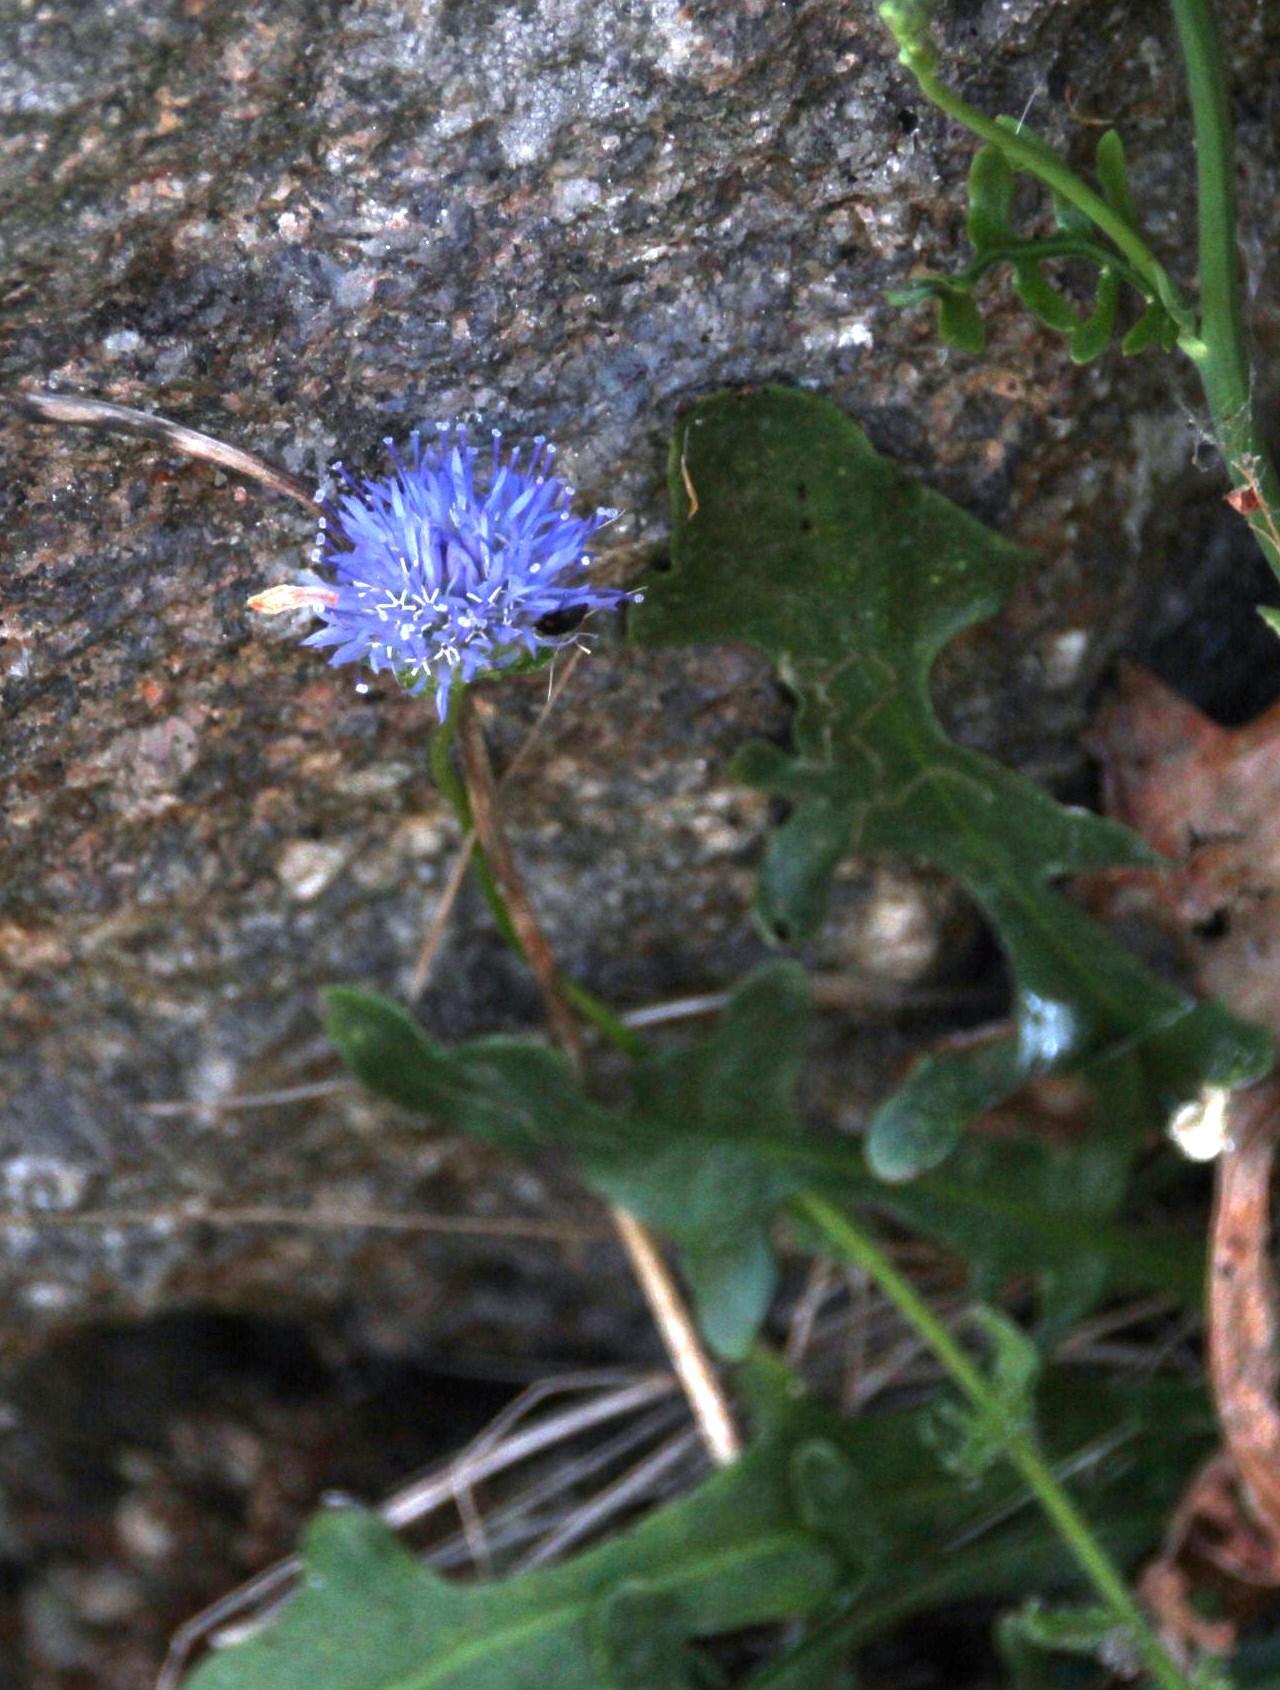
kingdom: Plantae
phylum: Tracheophyta
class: Magnoliopsida
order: Asterales
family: Campanulaceae
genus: Jasione
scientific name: Jasione montana
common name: Sheep's-bit
